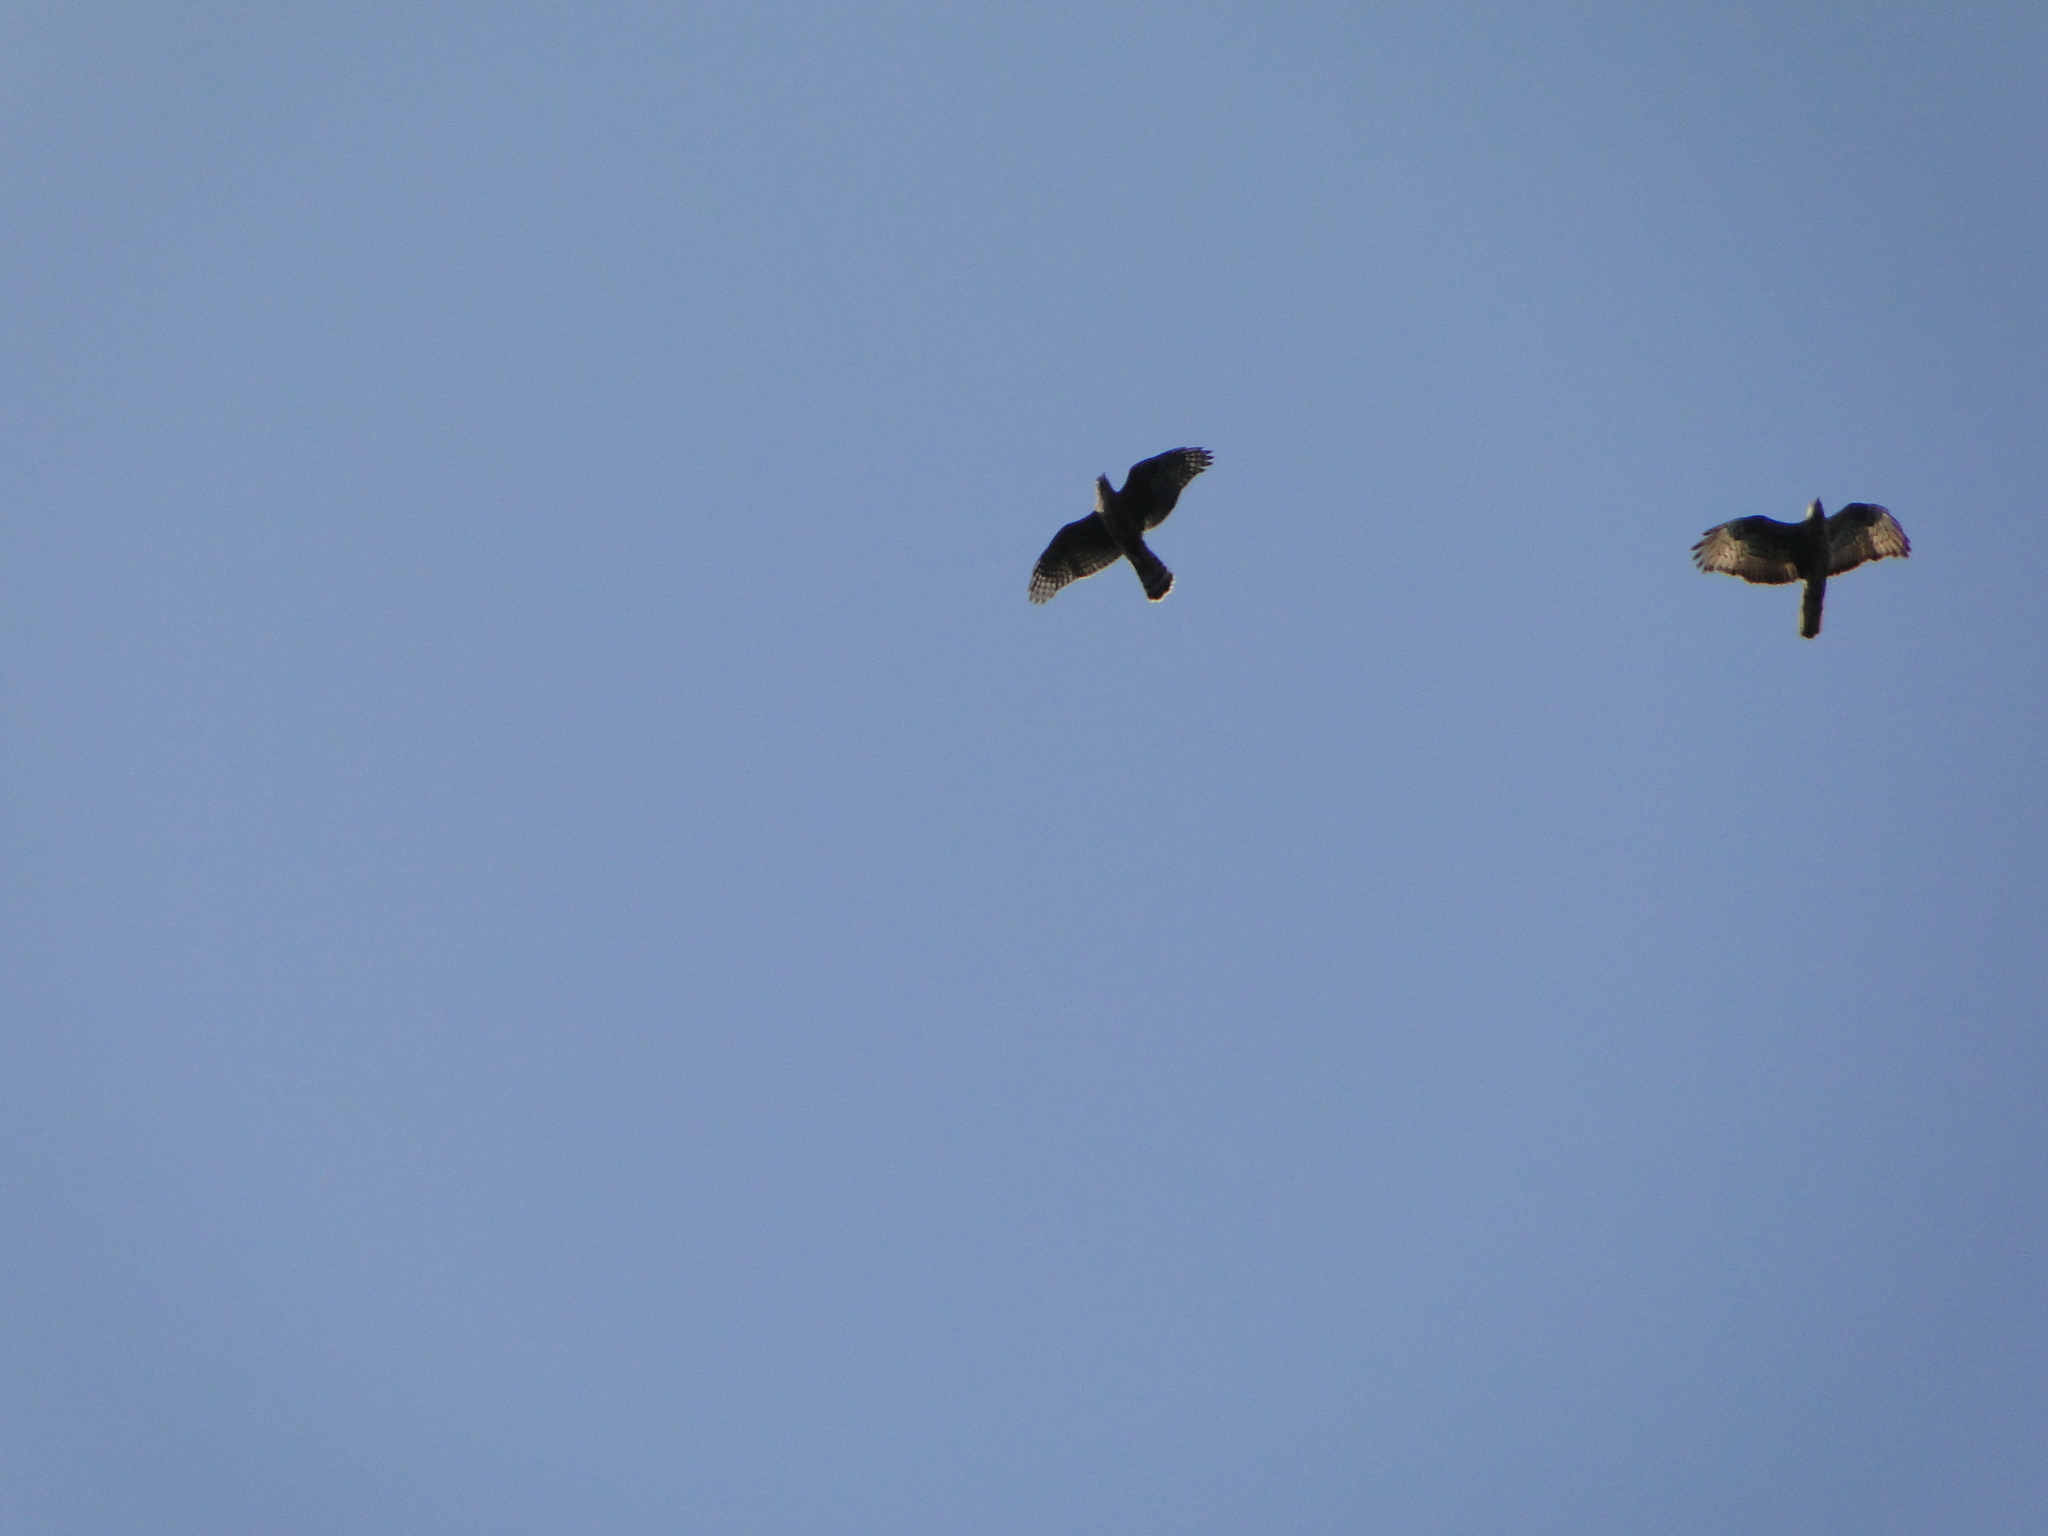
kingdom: Animalia
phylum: Chordata
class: Aves
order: Accipitriformes
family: Accipitridae
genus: Pernis
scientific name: Pernis apivorus
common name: European honey buzzard
